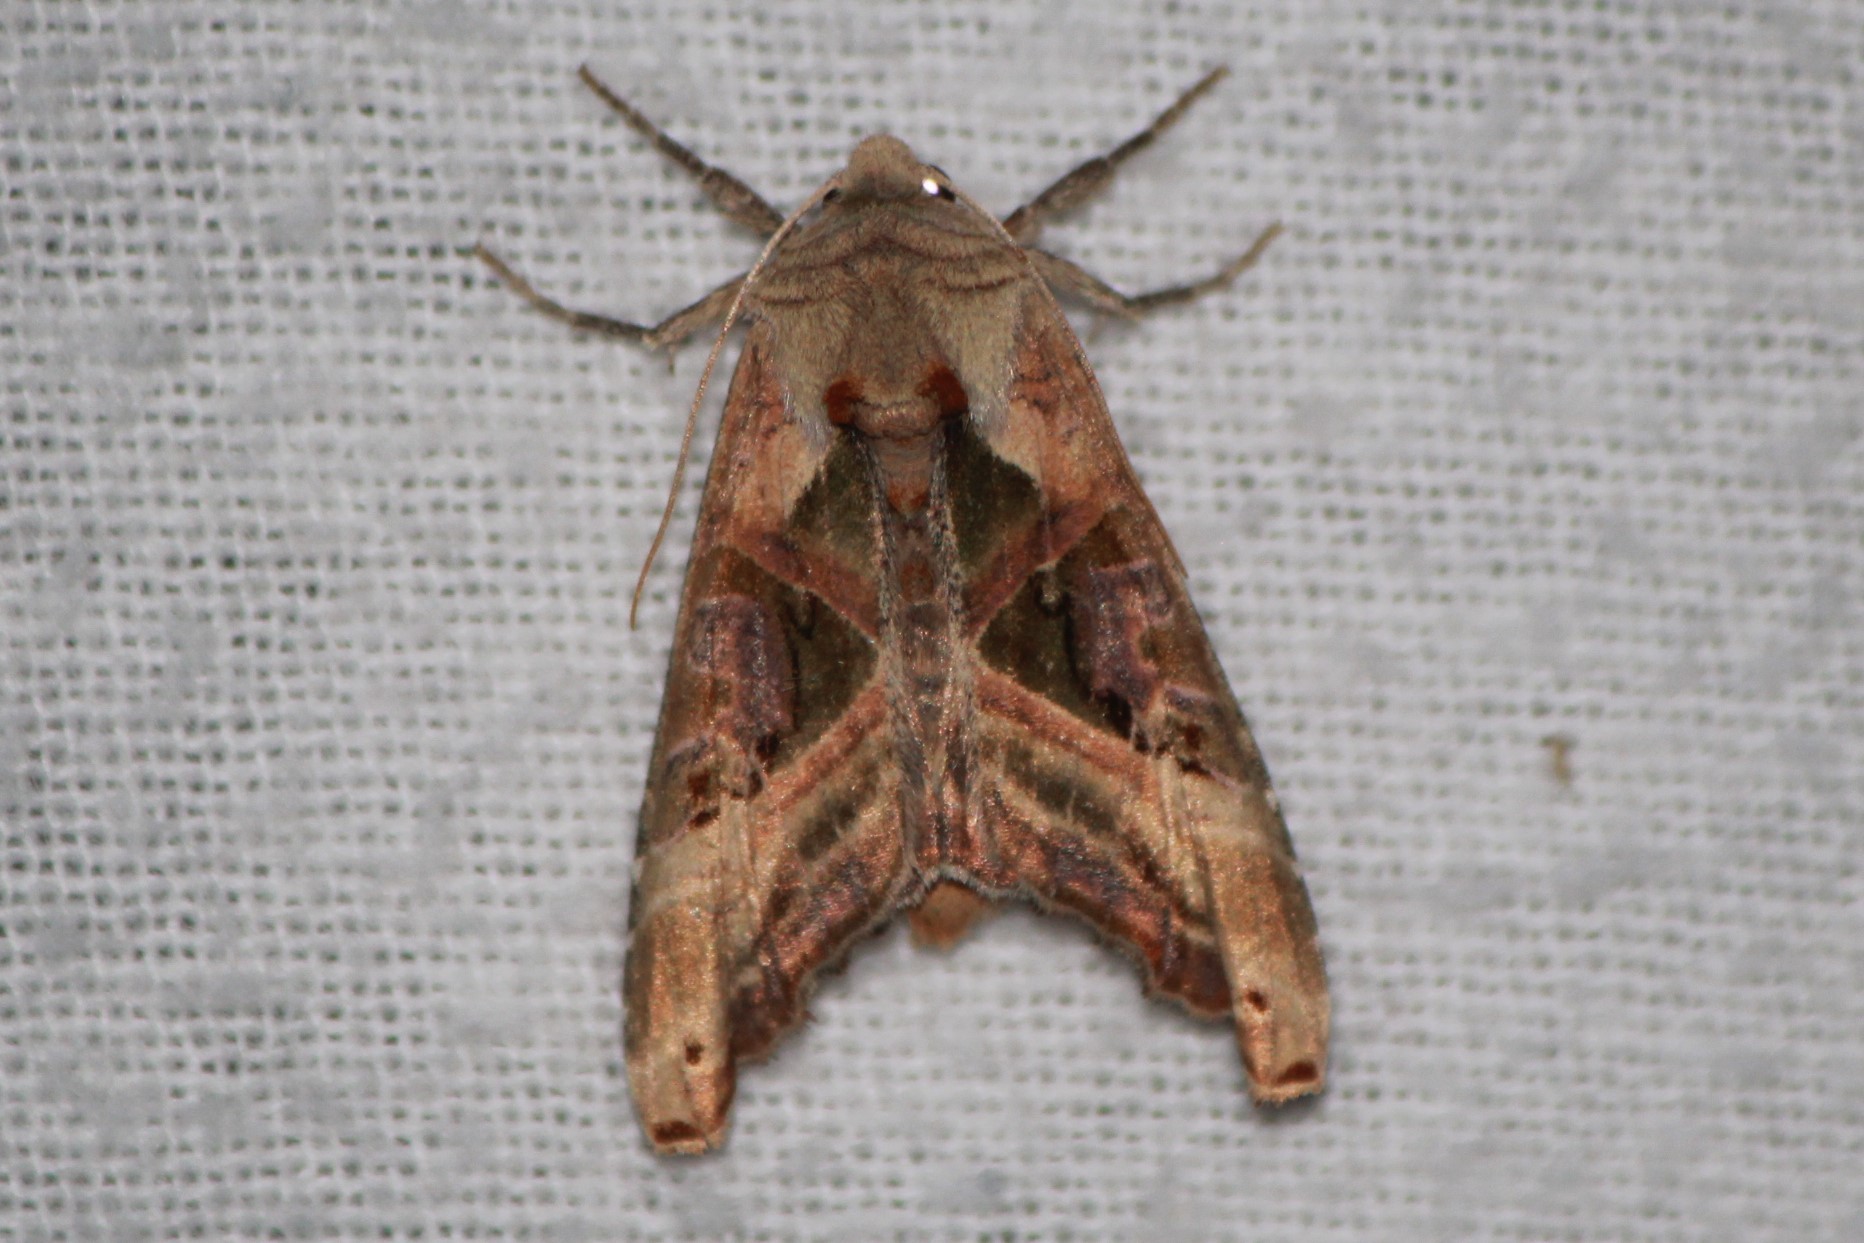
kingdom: Animalia
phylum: Arthropoda
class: Insecta
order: Lepidoptera
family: Noctuidae
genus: Phlogophora
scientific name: Phlogophora iris
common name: Olive angle shades
